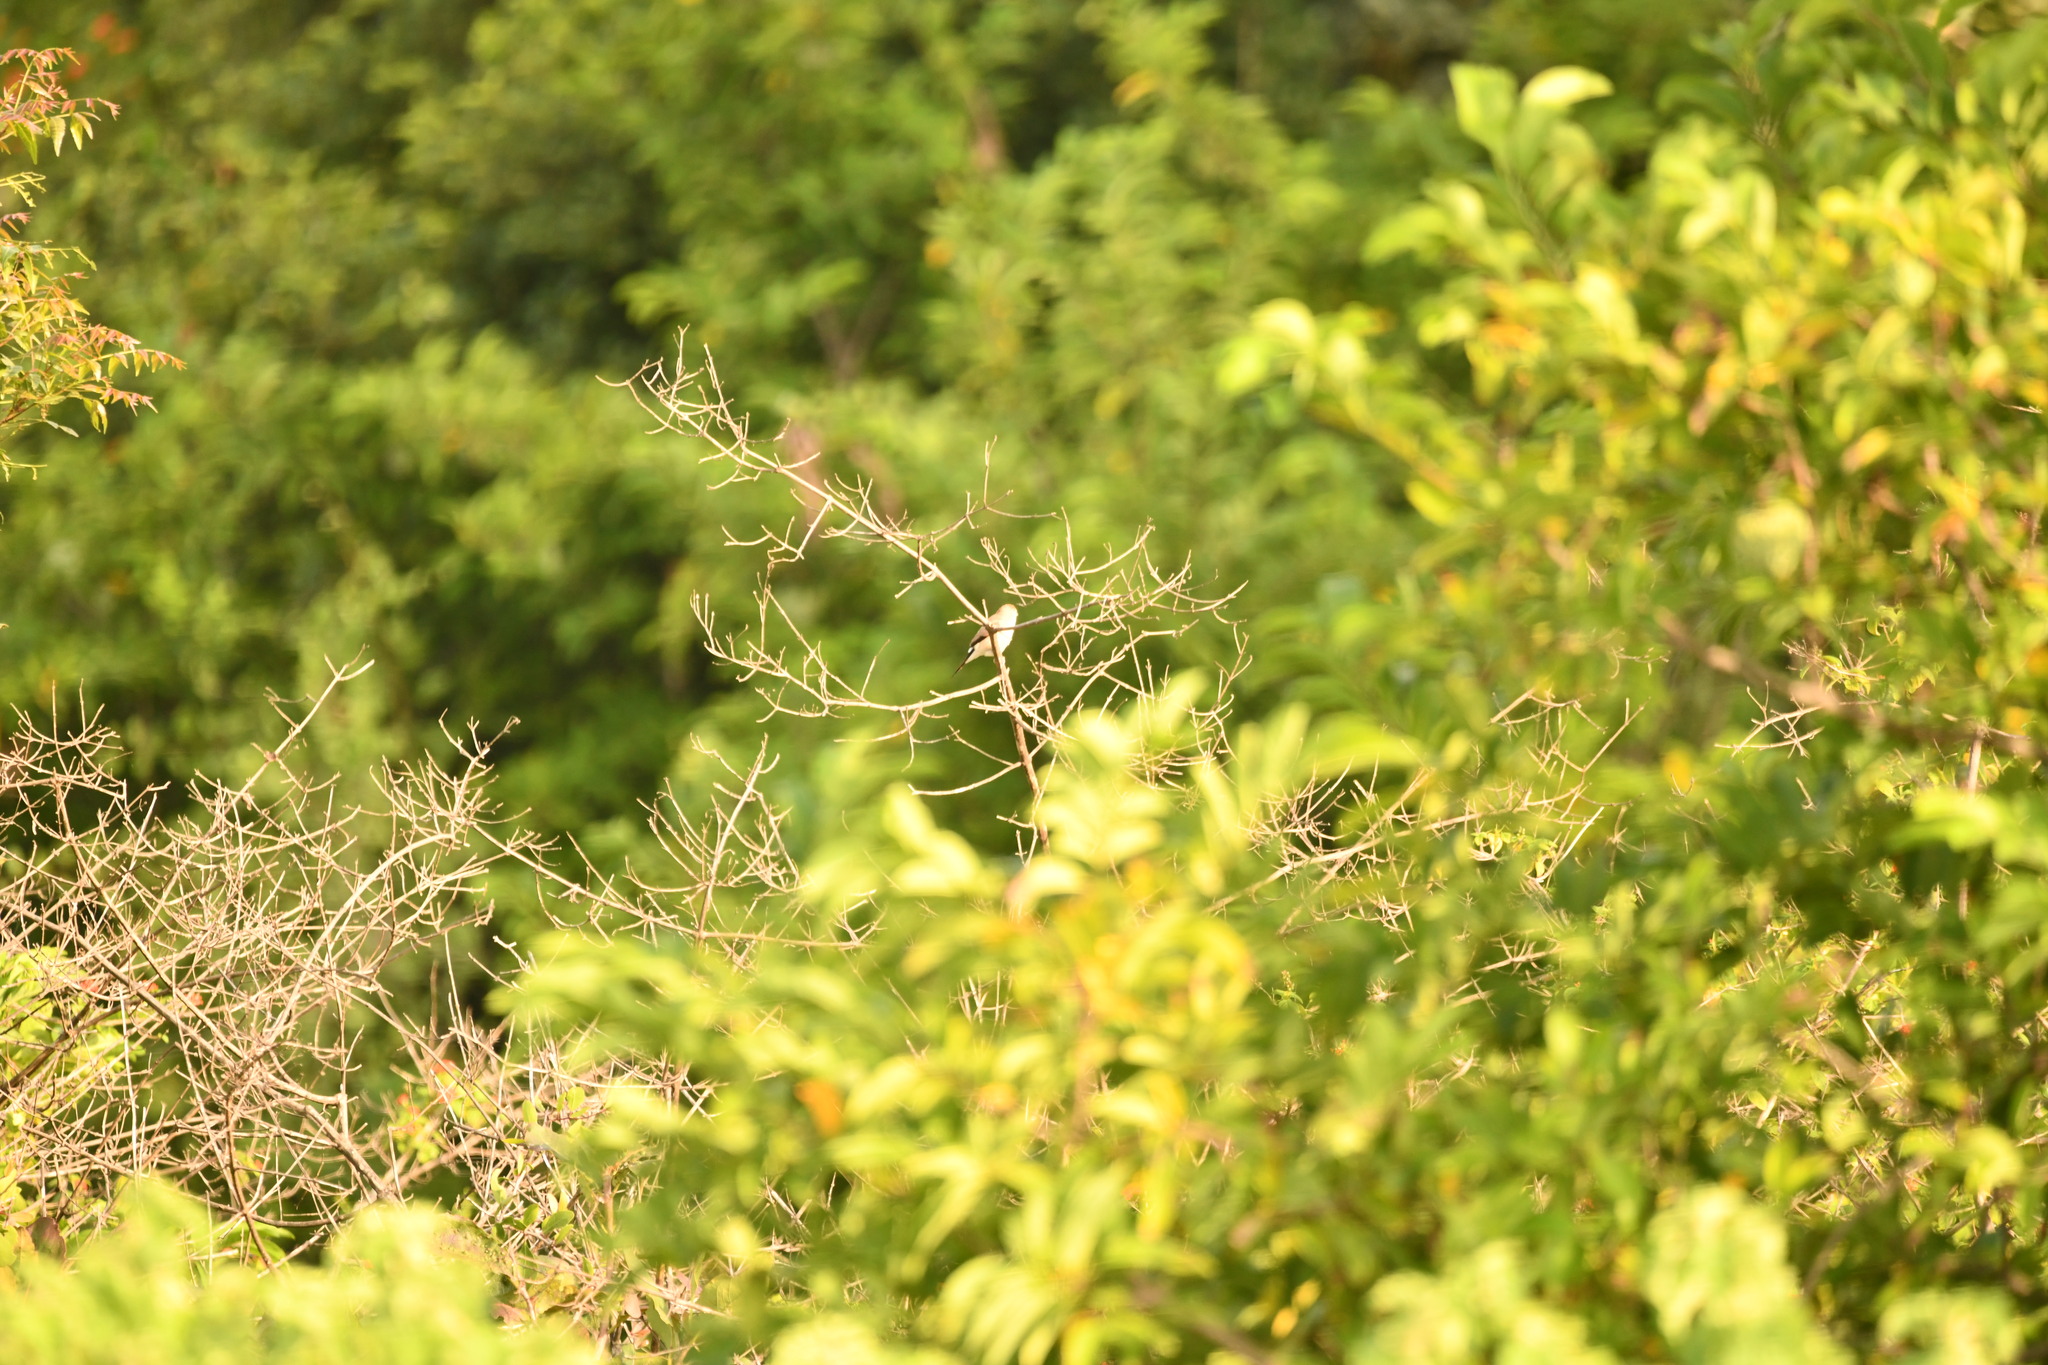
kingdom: Animalia
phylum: Chordata
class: Aves
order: Passeriformes
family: Estrildidae
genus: Euodice
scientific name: Euodice malabarica
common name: Indian silverbill
